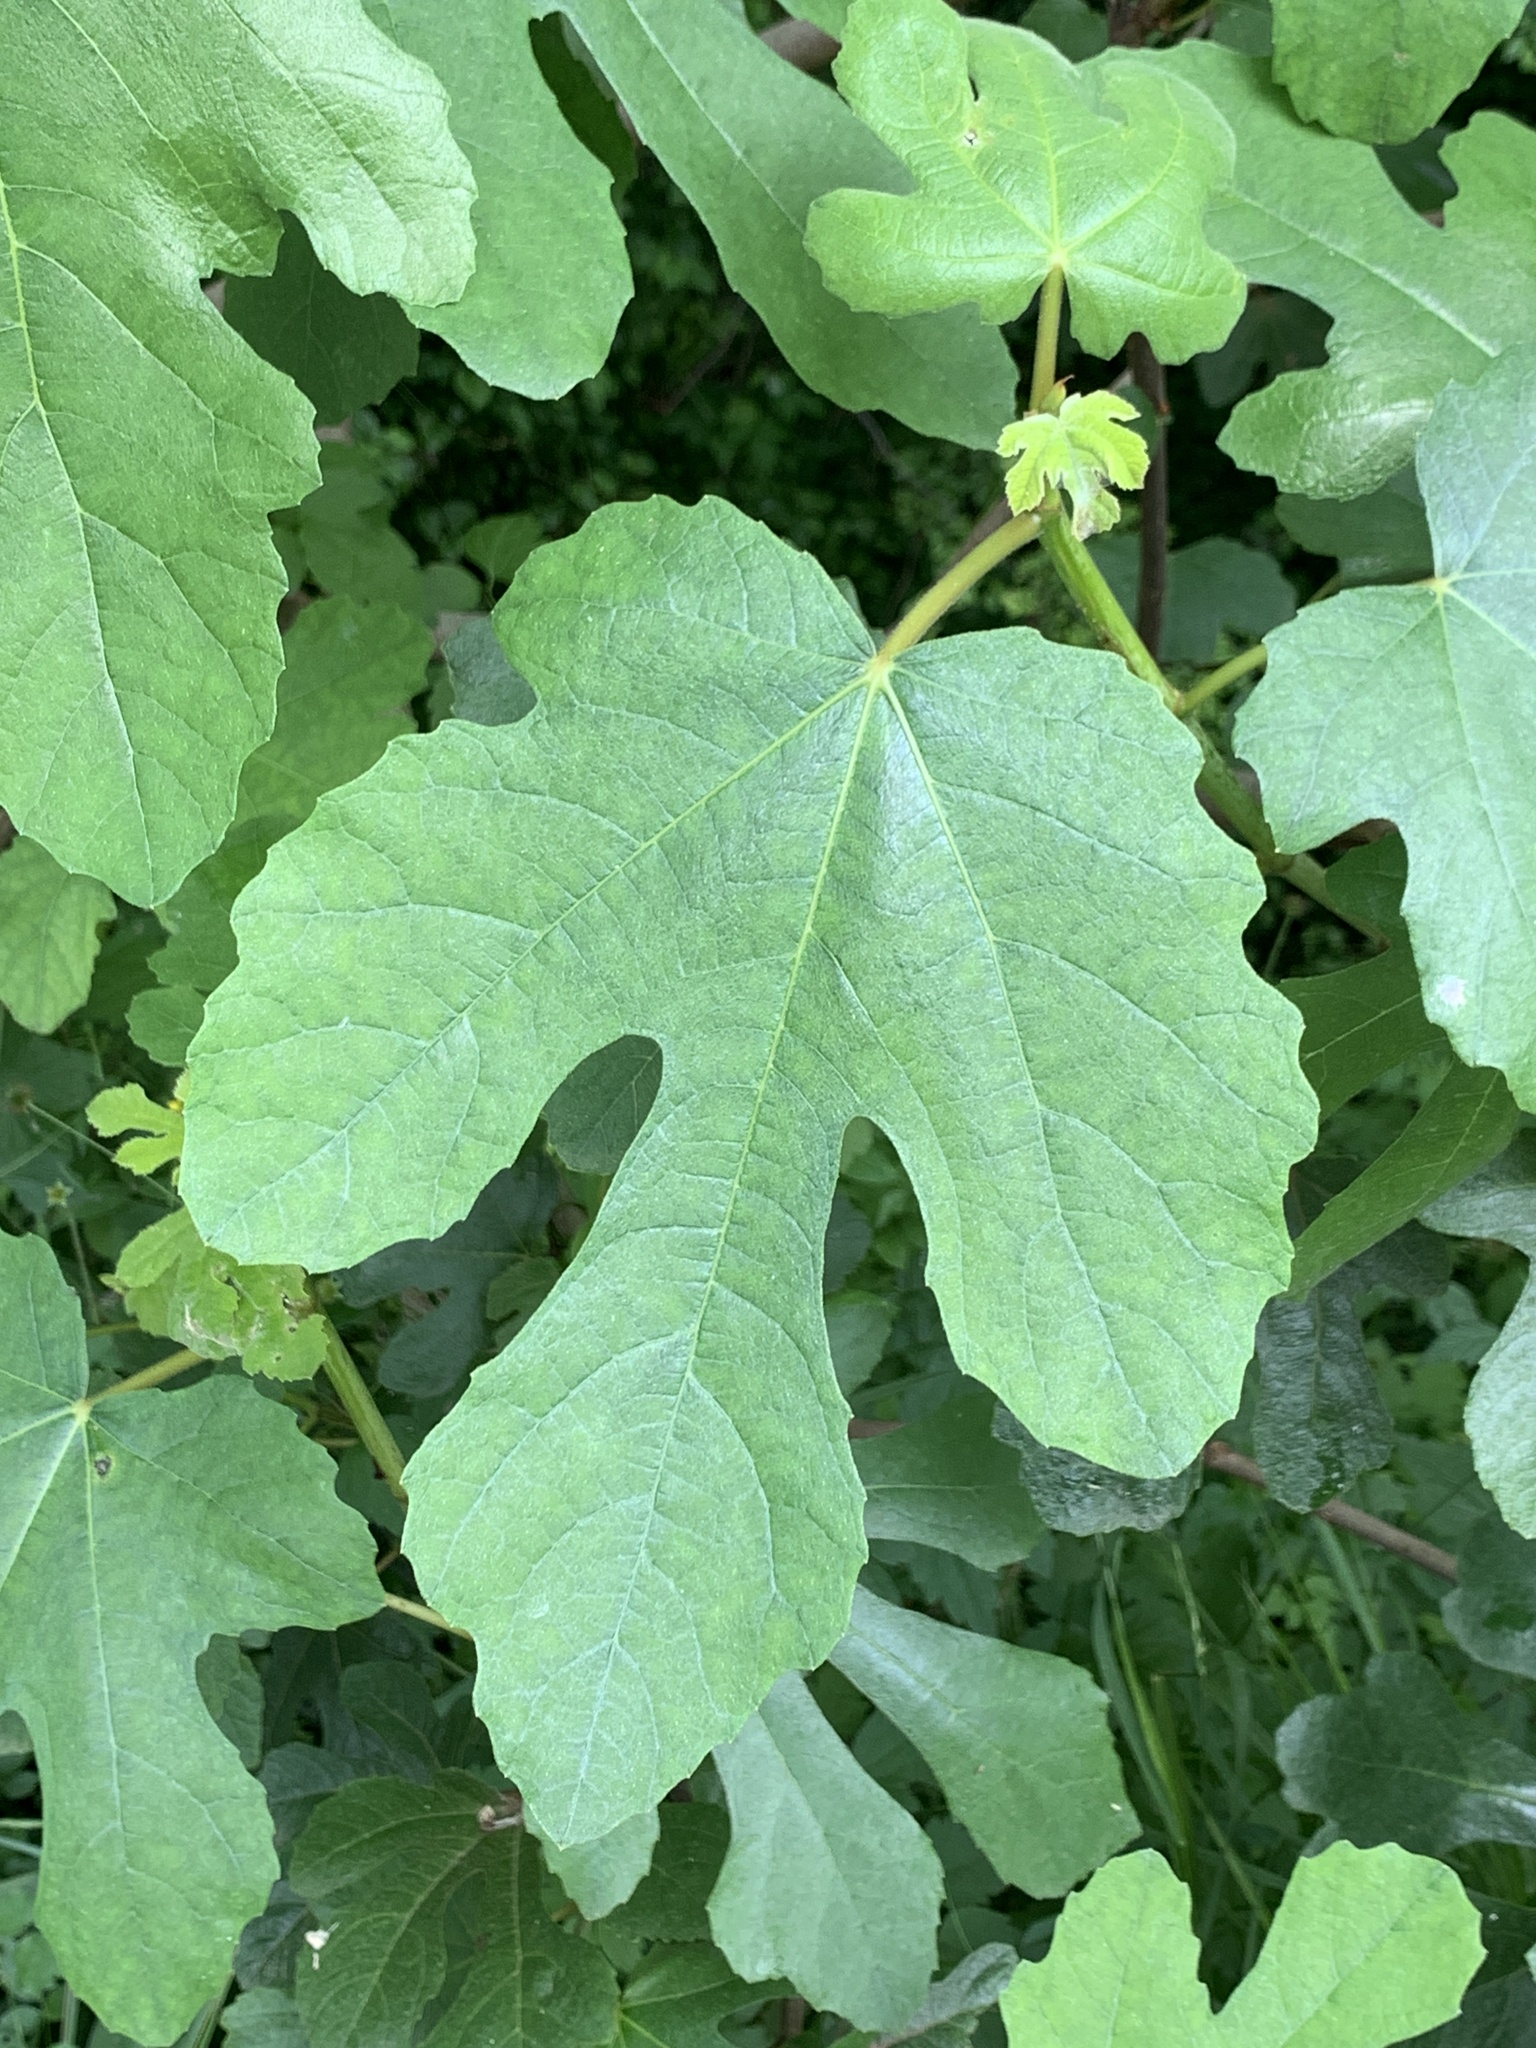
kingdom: Plantae
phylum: Tracheophyta
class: Magnoliopsida
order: Rosales
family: Moraceae
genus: Ficus
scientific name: Ficus carica
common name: Fig
